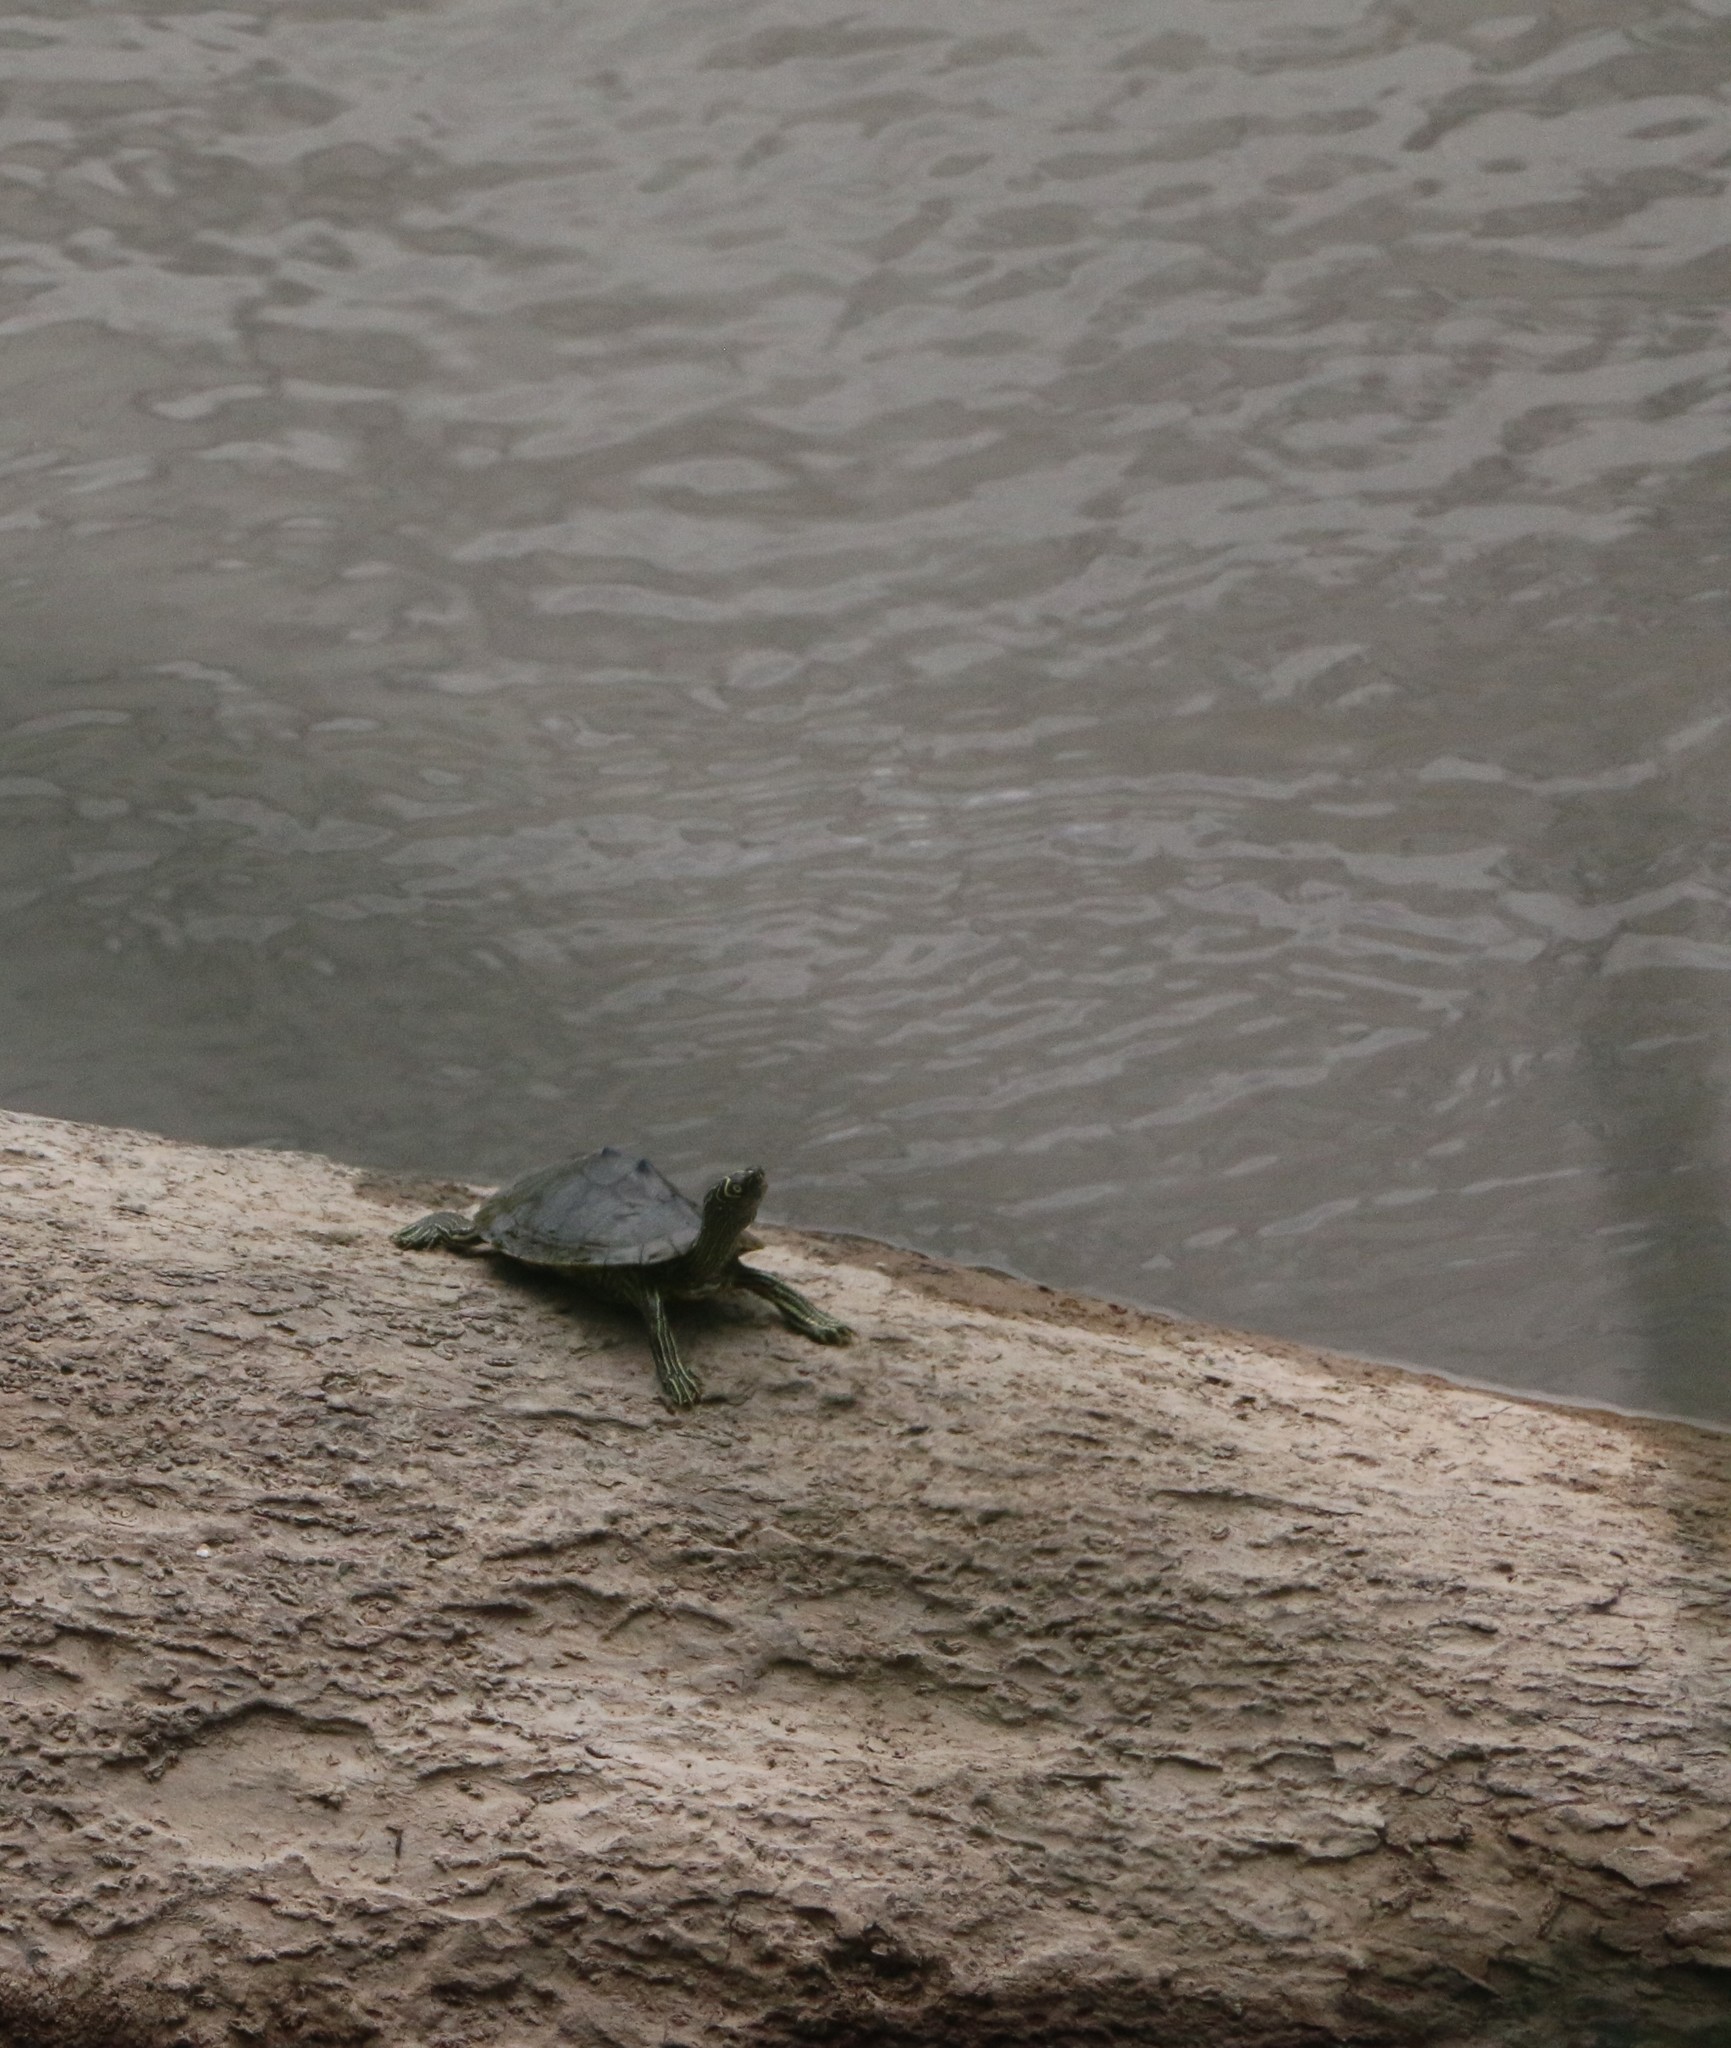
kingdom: Animalia
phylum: Chordata
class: Testudines
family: Emydidae
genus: Graptemys
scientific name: Graptemys pseudogeographica
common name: False map turtle
